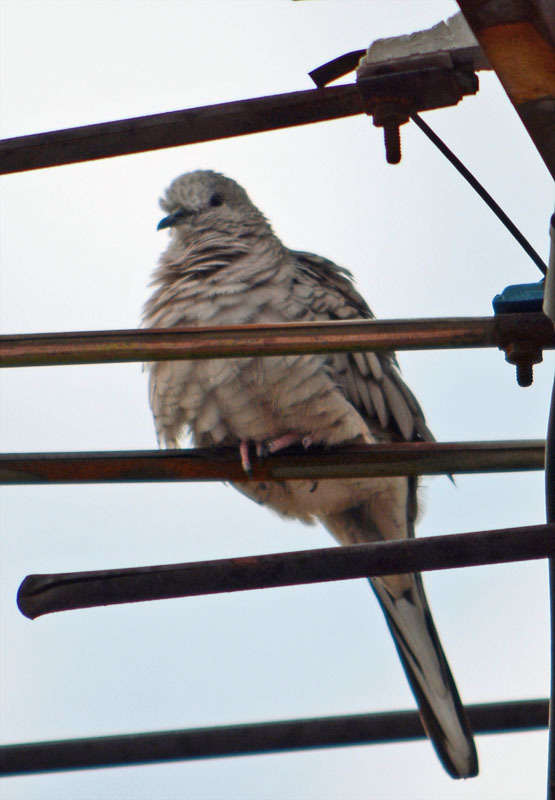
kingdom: Animalia
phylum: Chordata
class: Aves
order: Columbiformes
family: Columbidae
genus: Columbina
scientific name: Columbina inca
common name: Inca dove
